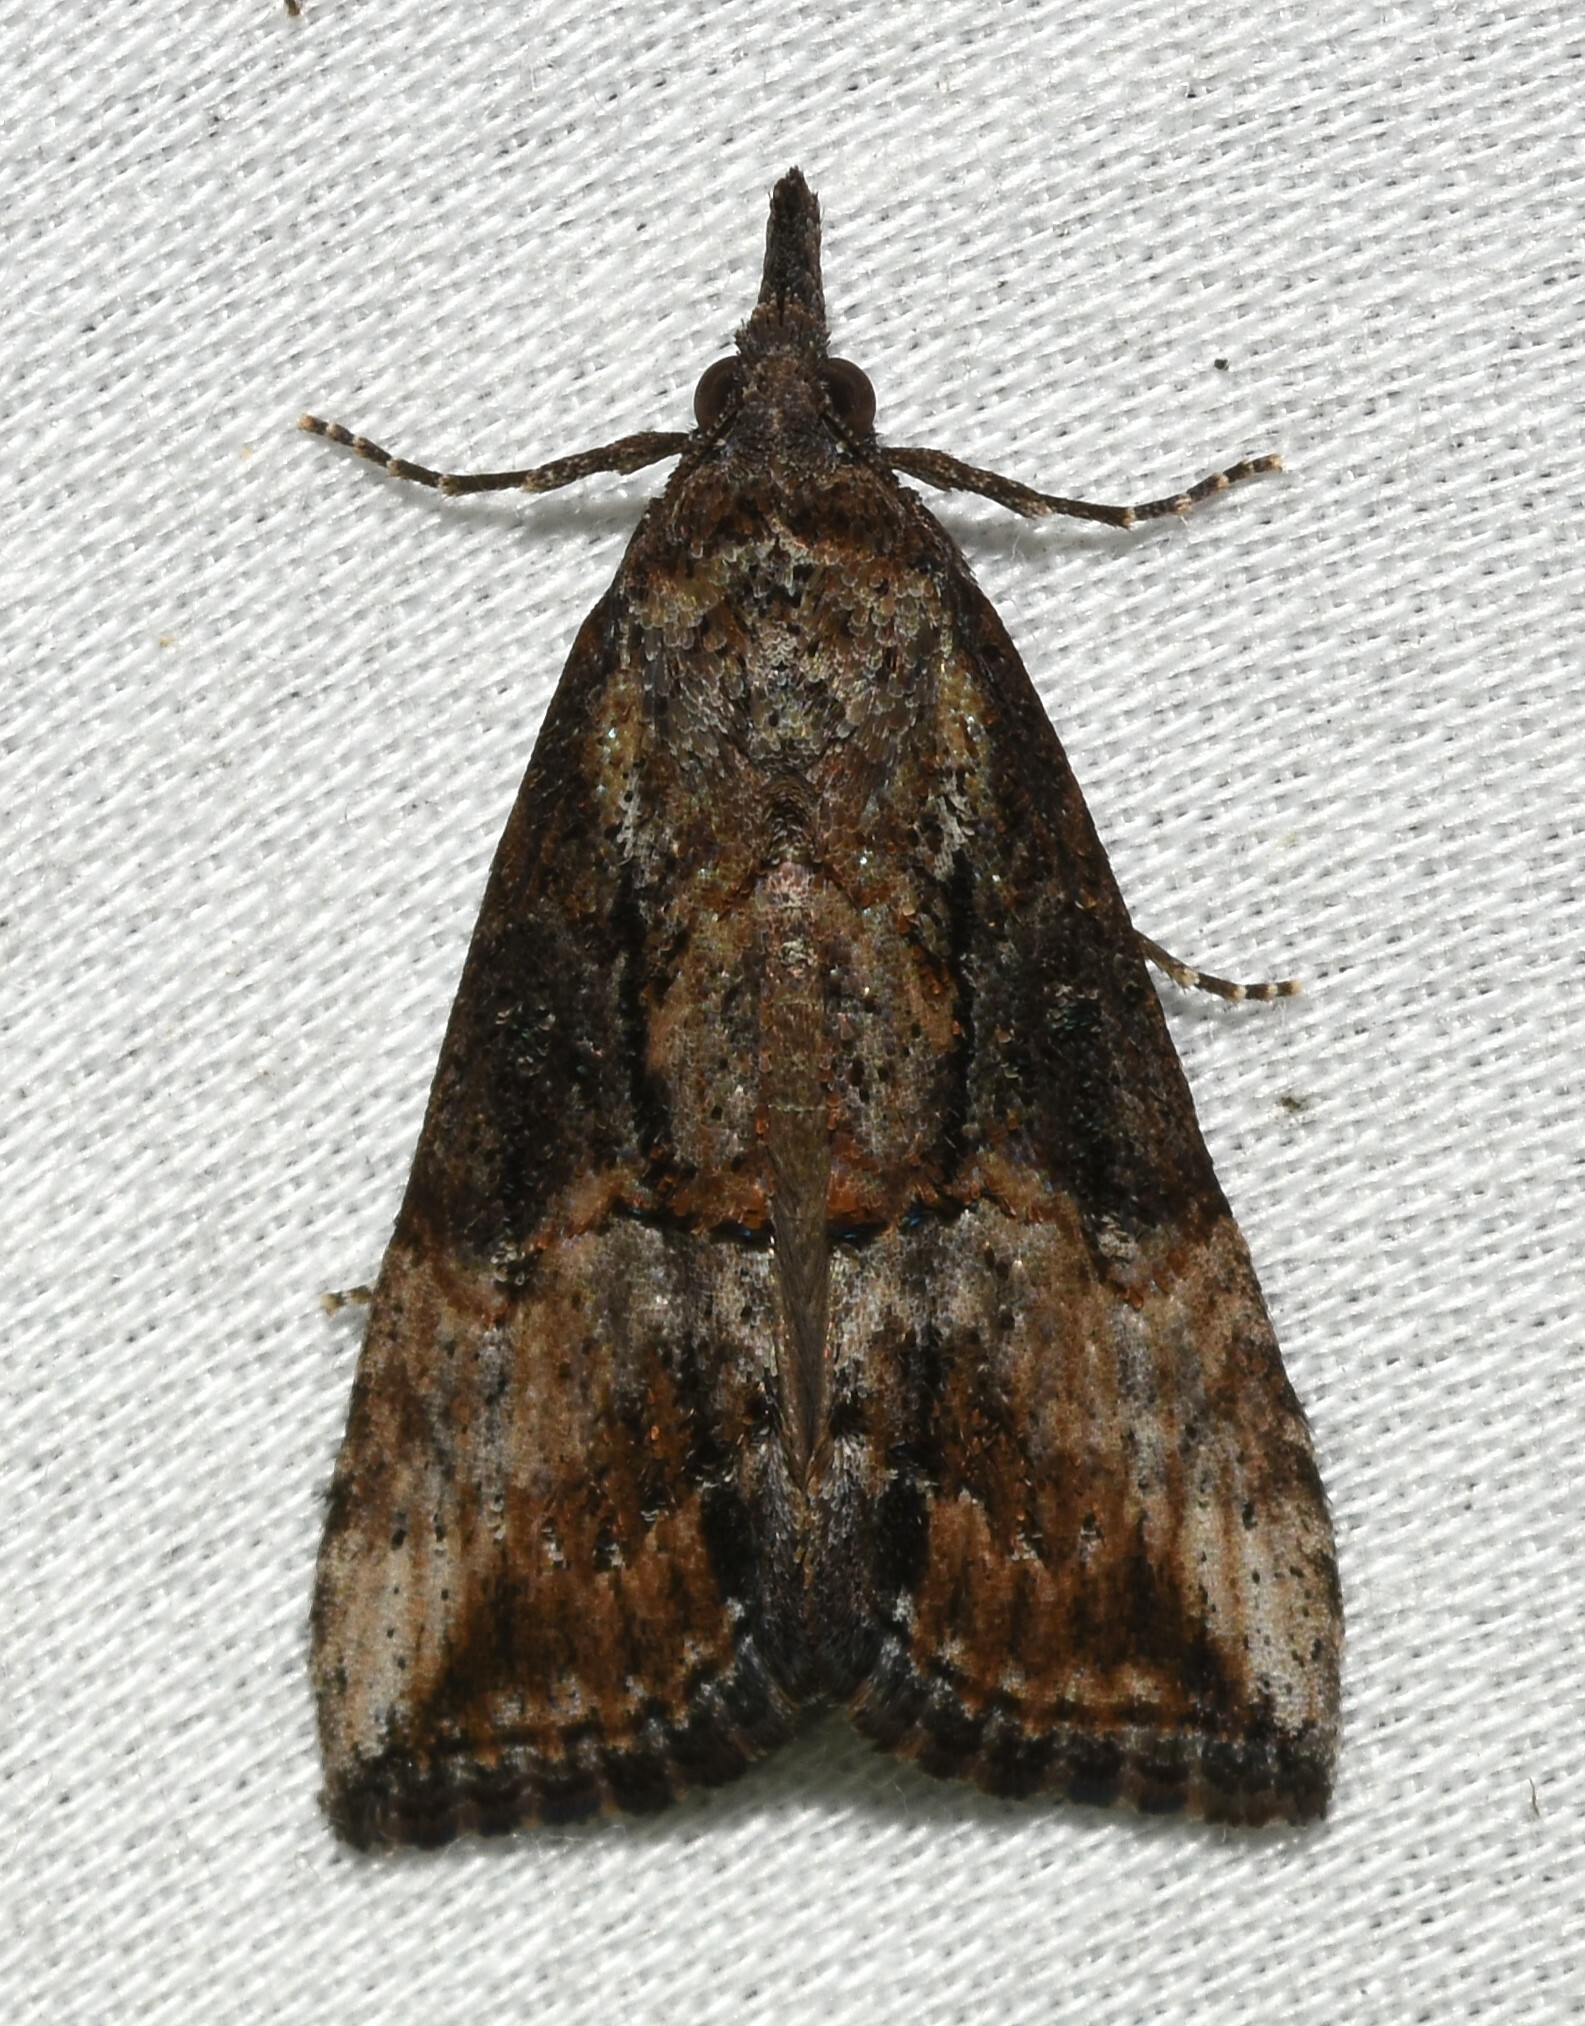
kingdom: Animalia
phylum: Arthropoda
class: Insecta
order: Lepidoptera
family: Erebidae
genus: Hypena
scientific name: Hypena scabra
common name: Green cloverworm
